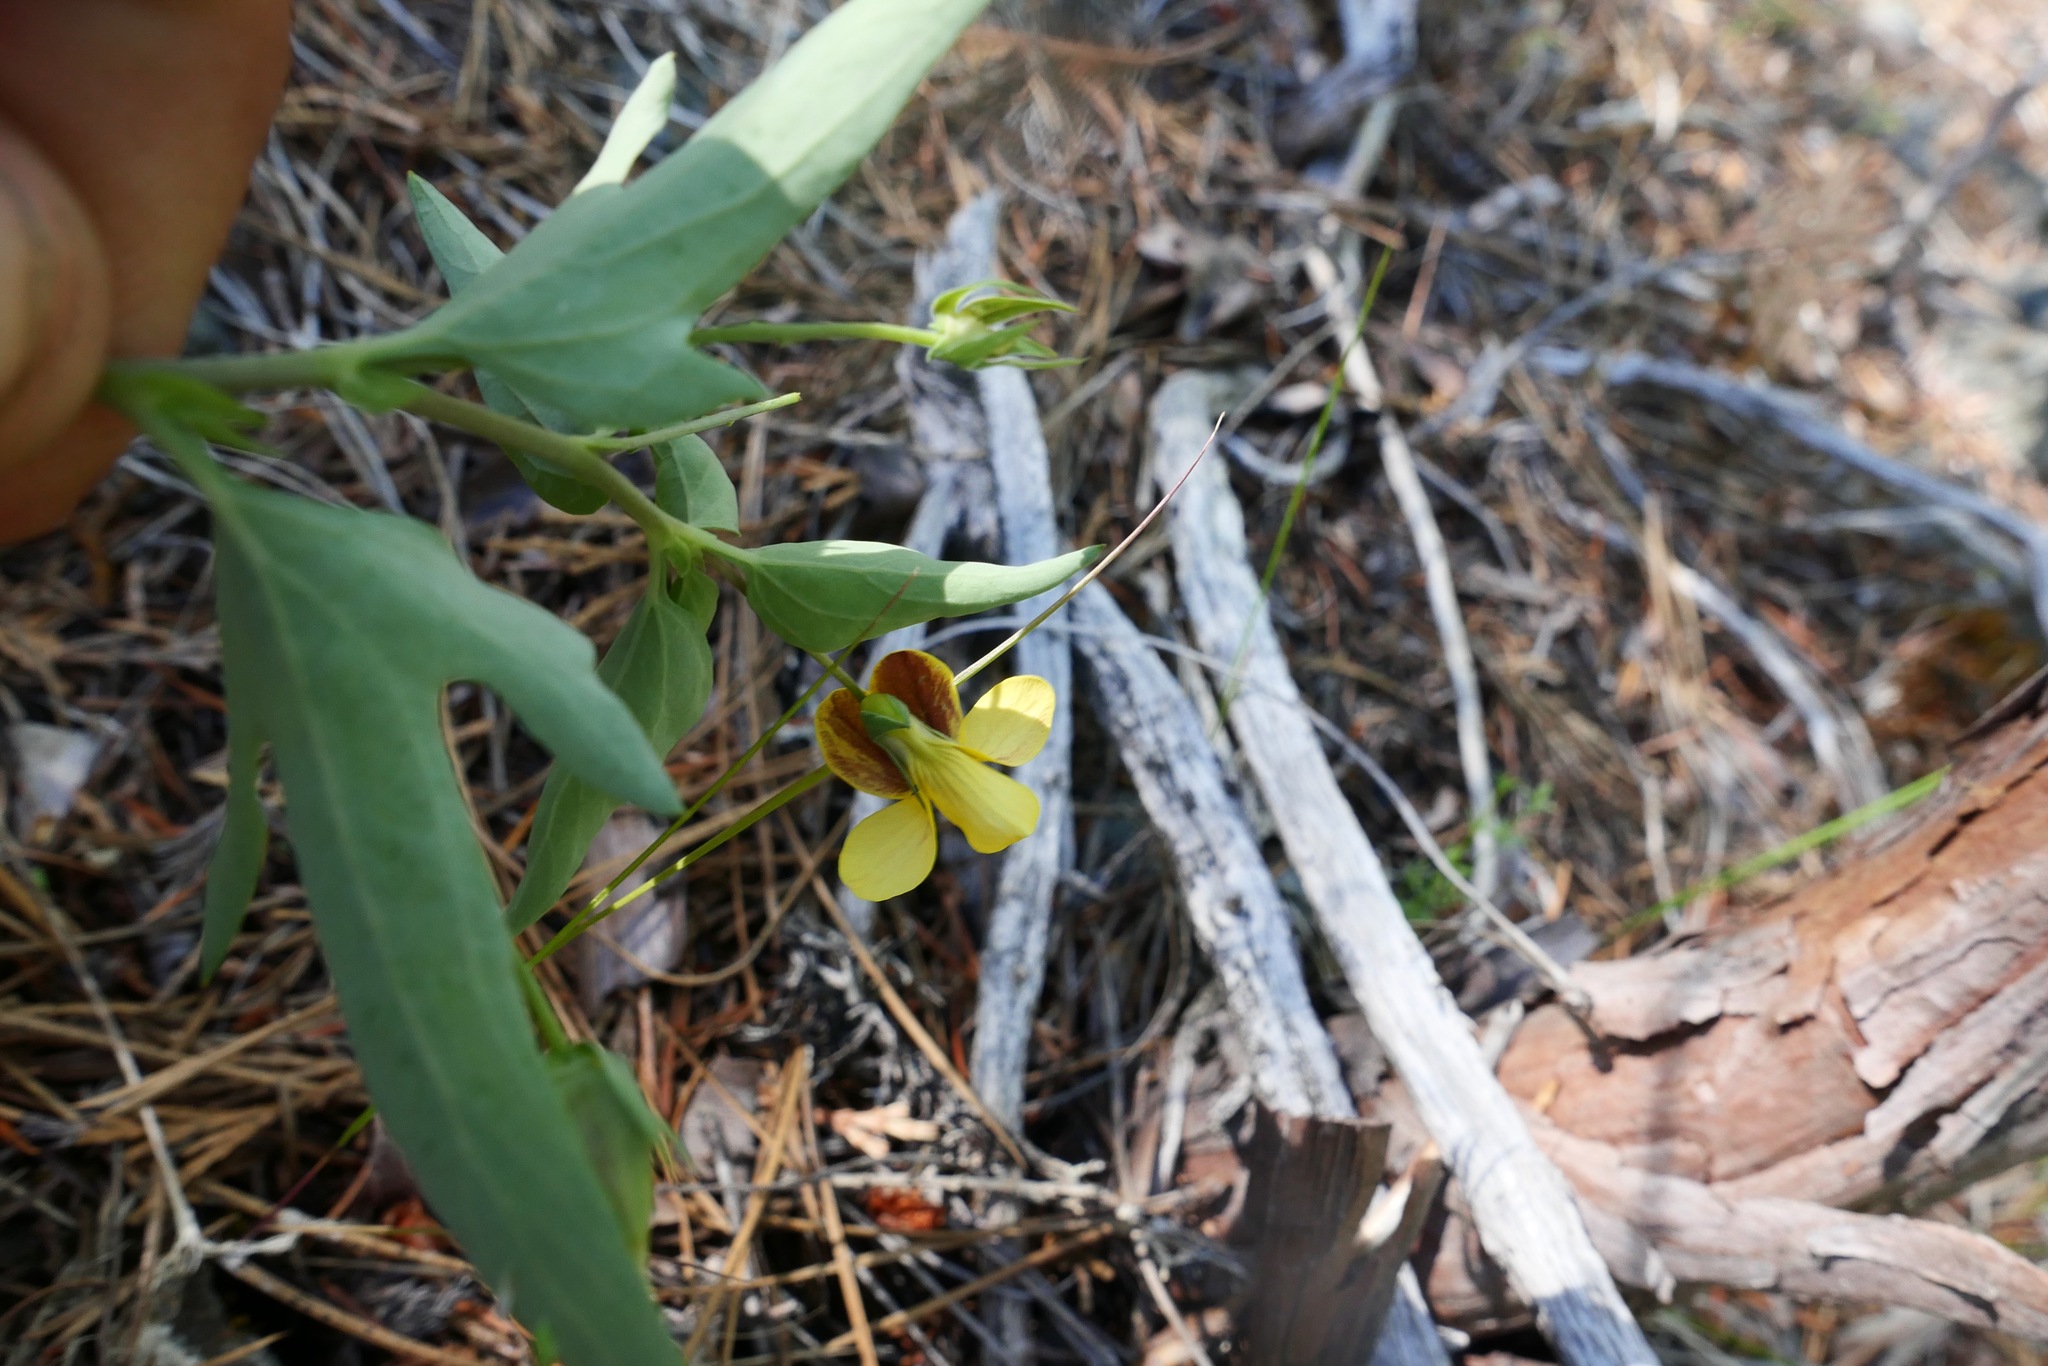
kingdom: Plantae
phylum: Tracheophyta
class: Magnoliopsida
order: Malpighiales
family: Violaceae
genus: Viola
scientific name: Viola lobata
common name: Pine violet
